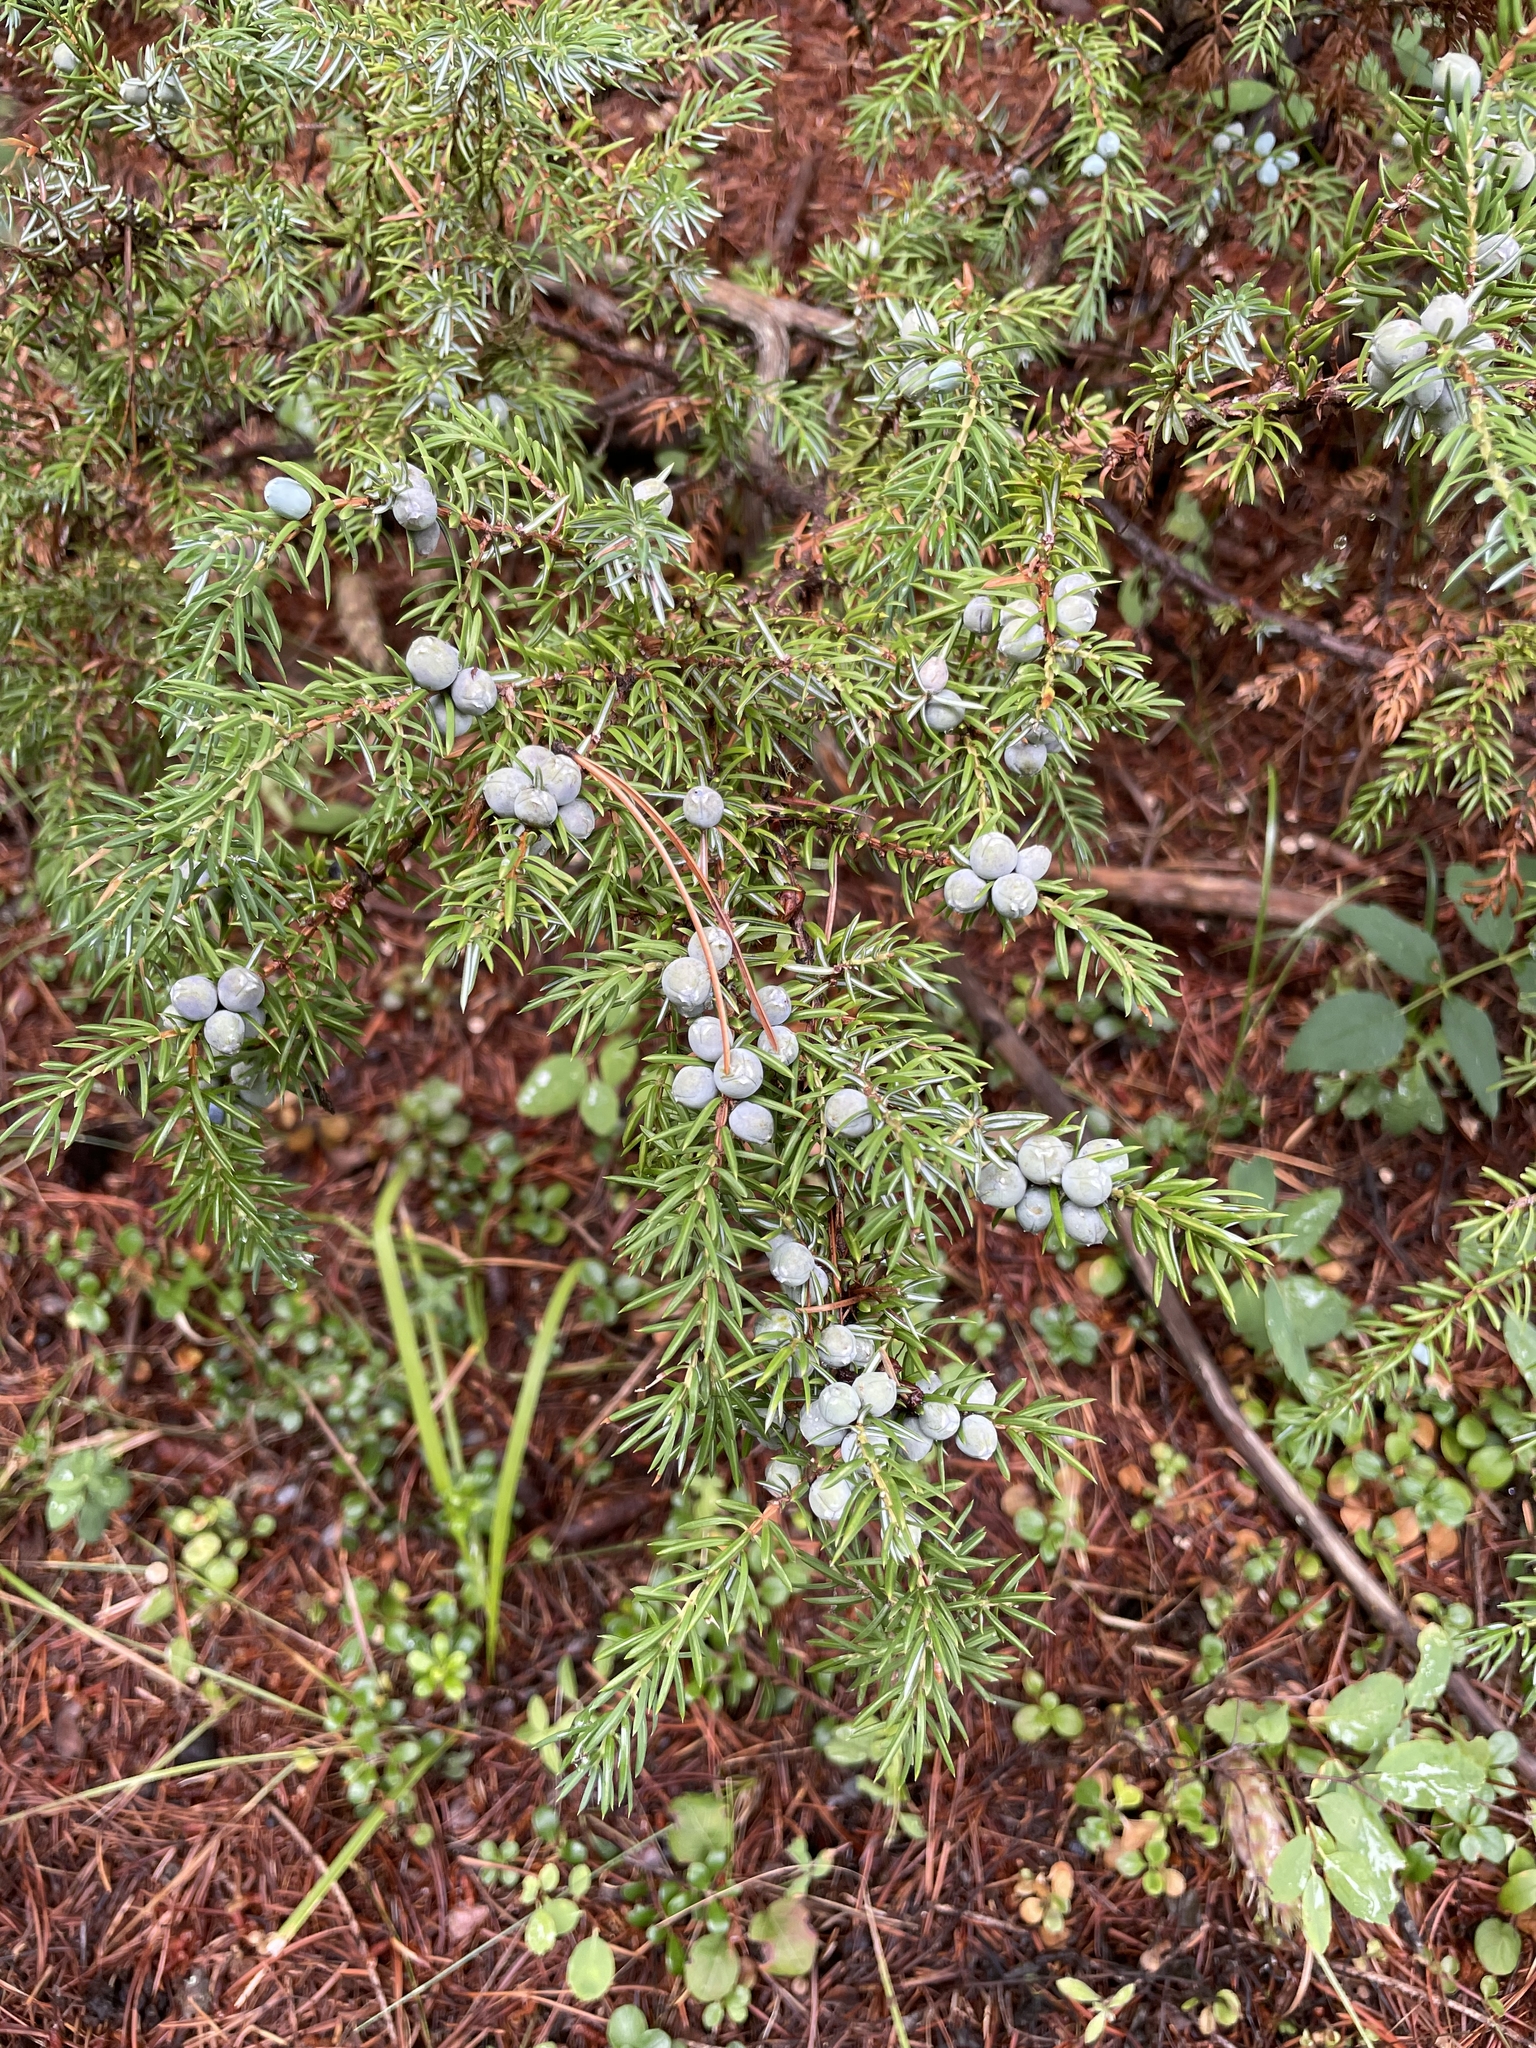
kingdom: Plantae
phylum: Tracheophyta
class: Pinopsida
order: Pinales
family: Cupressaceae
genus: Juniperus
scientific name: Juniperus communis
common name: Common juniper
